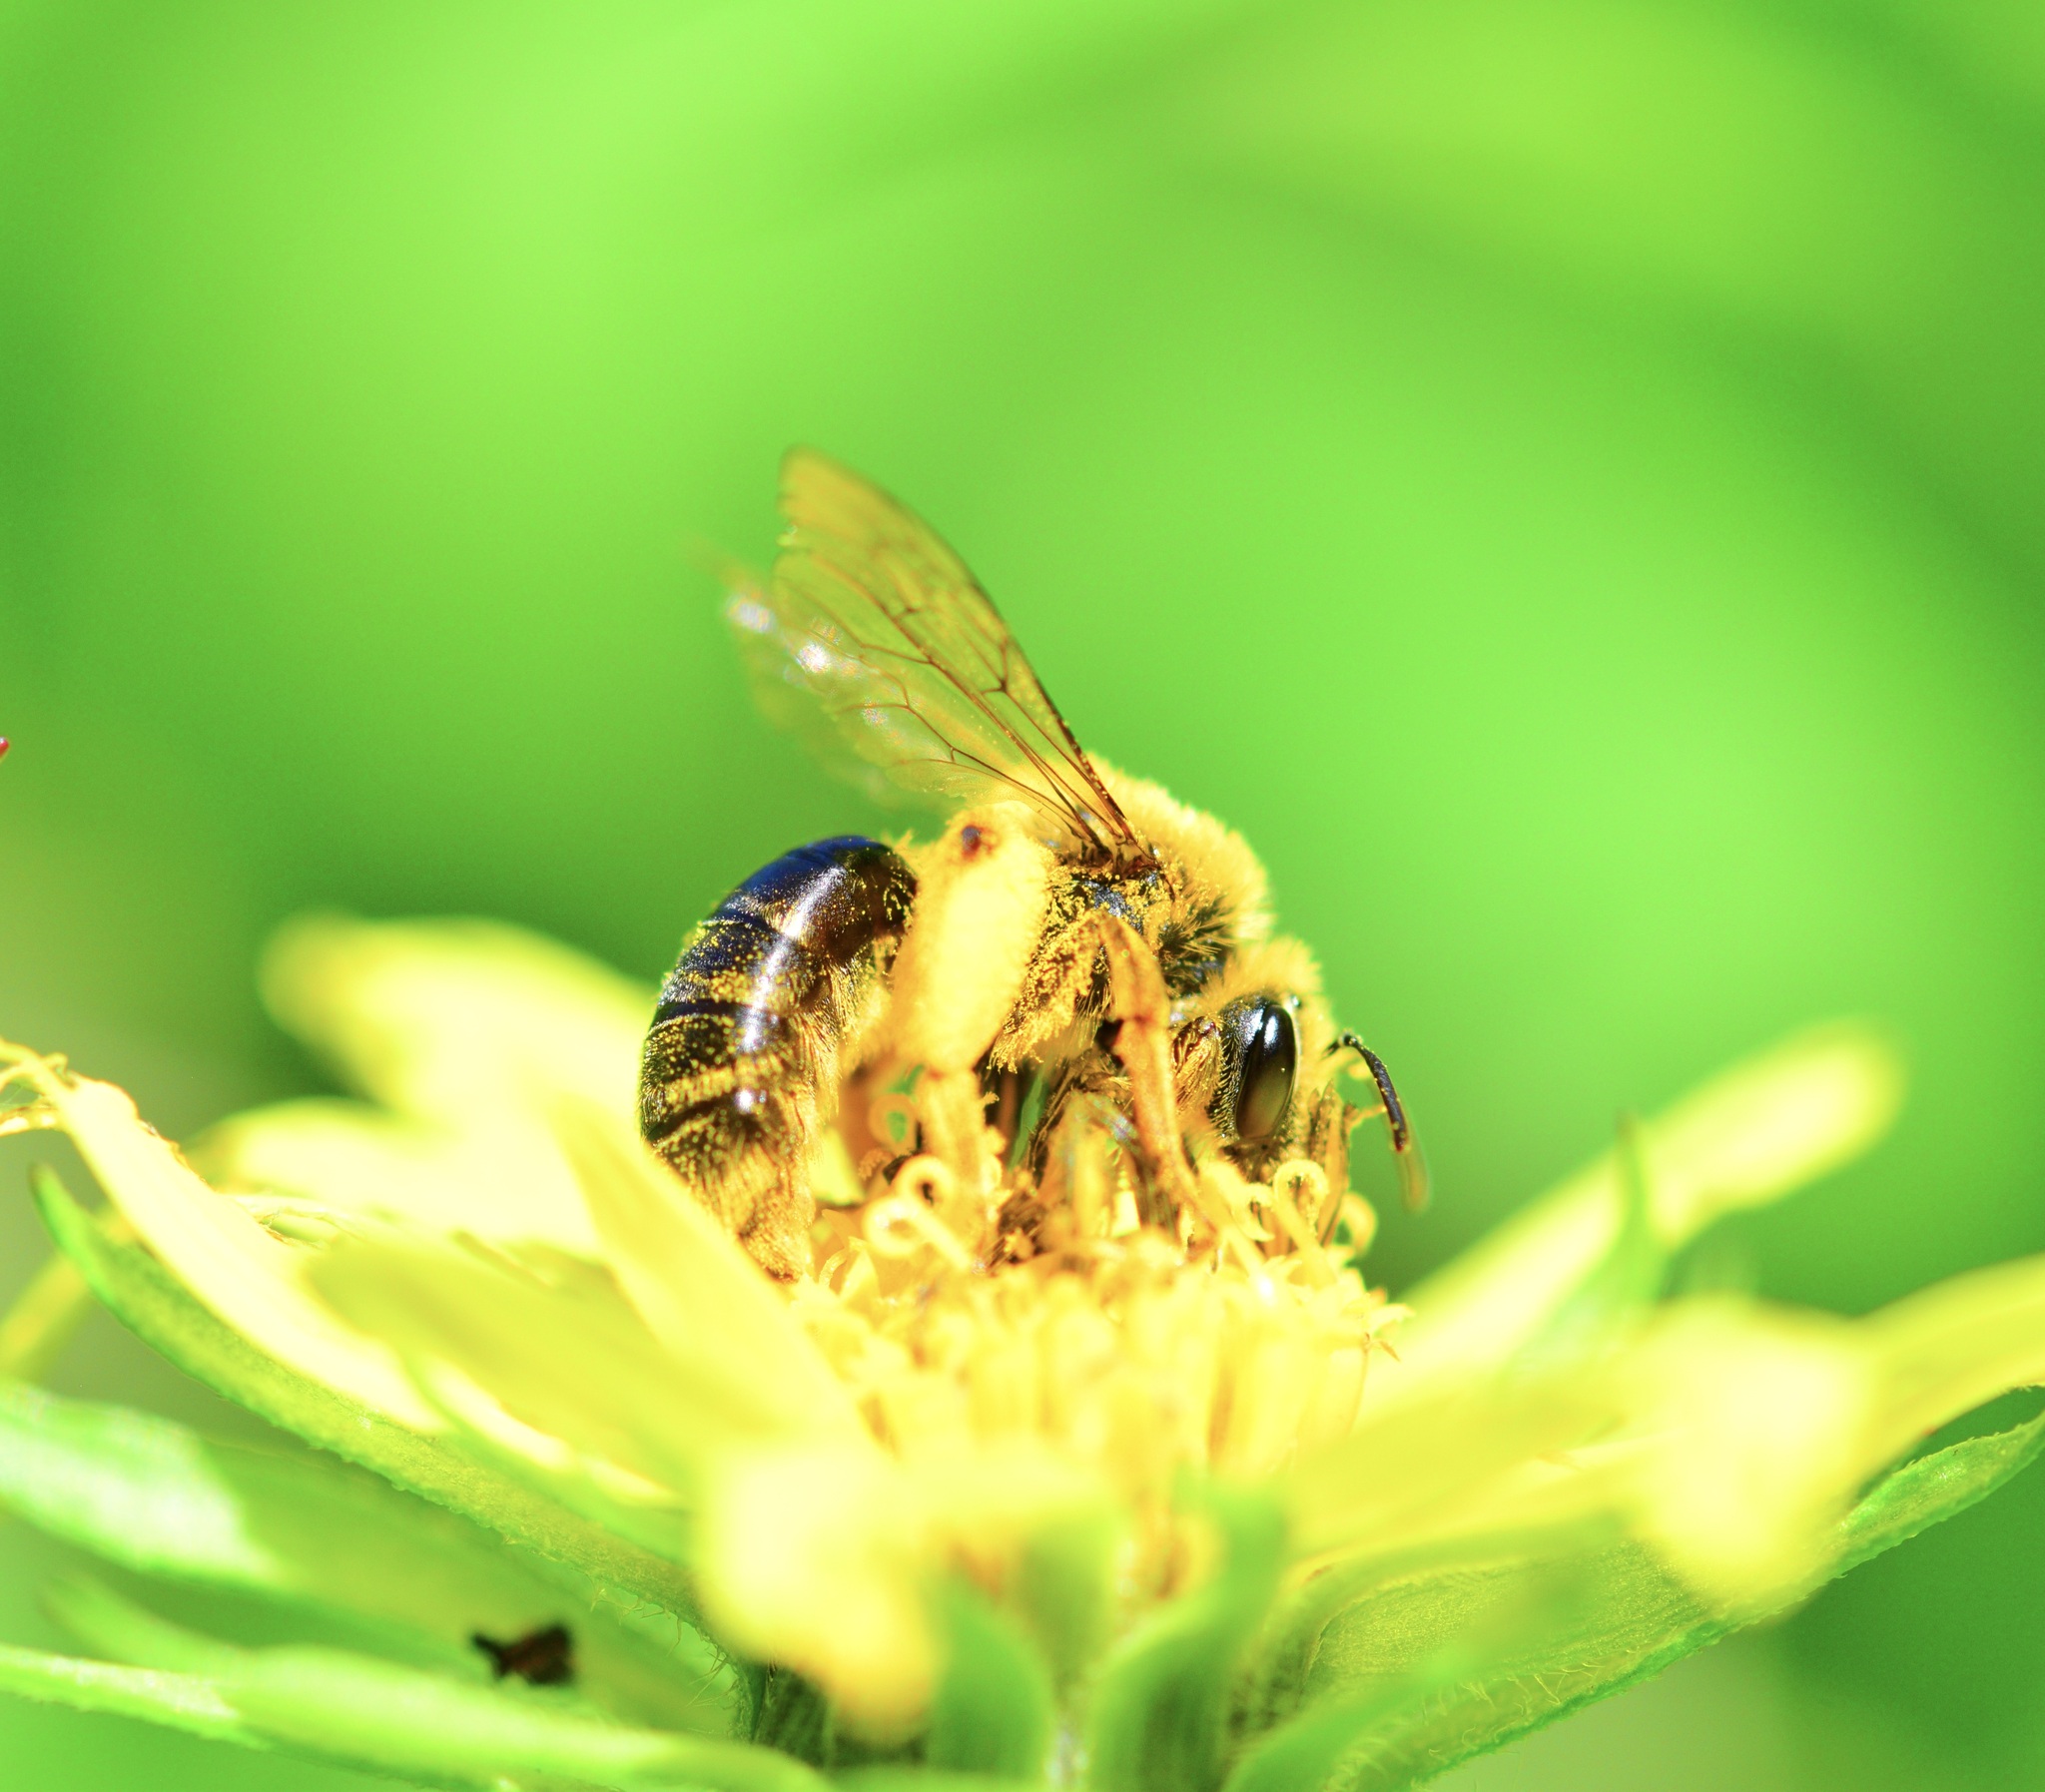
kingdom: Animalia
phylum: Arthropoda
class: Insecta
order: Hymenoptera
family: Andrenidae
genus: Andrena
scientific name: Andrena helianthi
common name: Sunflower mining bee
